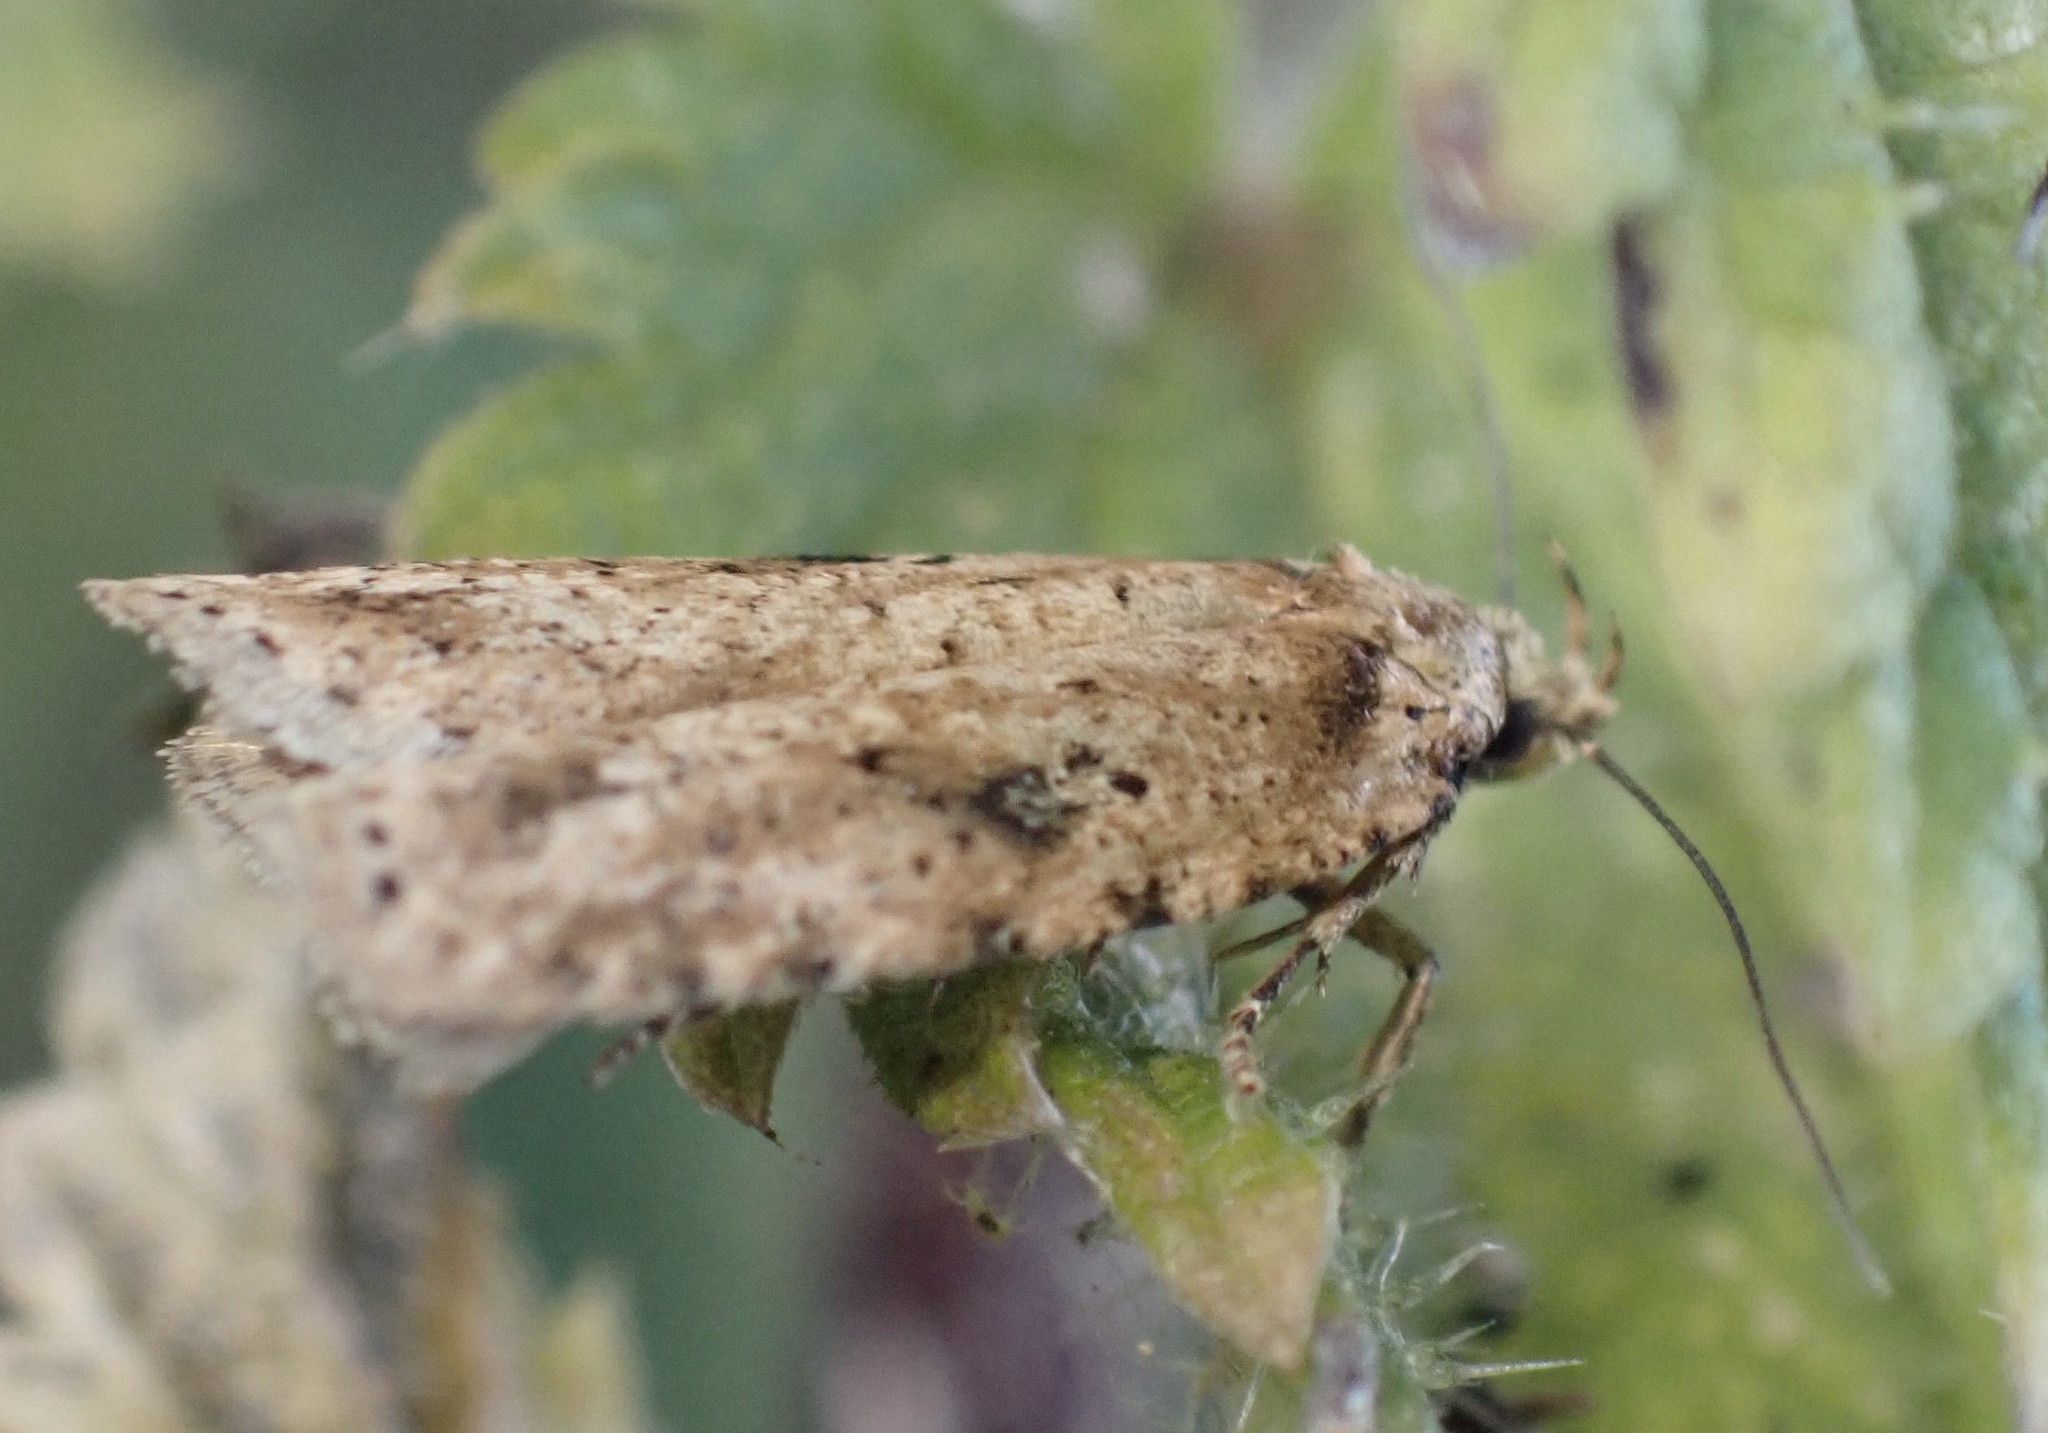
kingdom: Animalia
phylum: Arthropoda
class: Insecta
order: Lepidoptera
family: Depressariidae
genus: Agonopterix
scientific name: Agonopterix arenella
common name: Brindled flat-body
